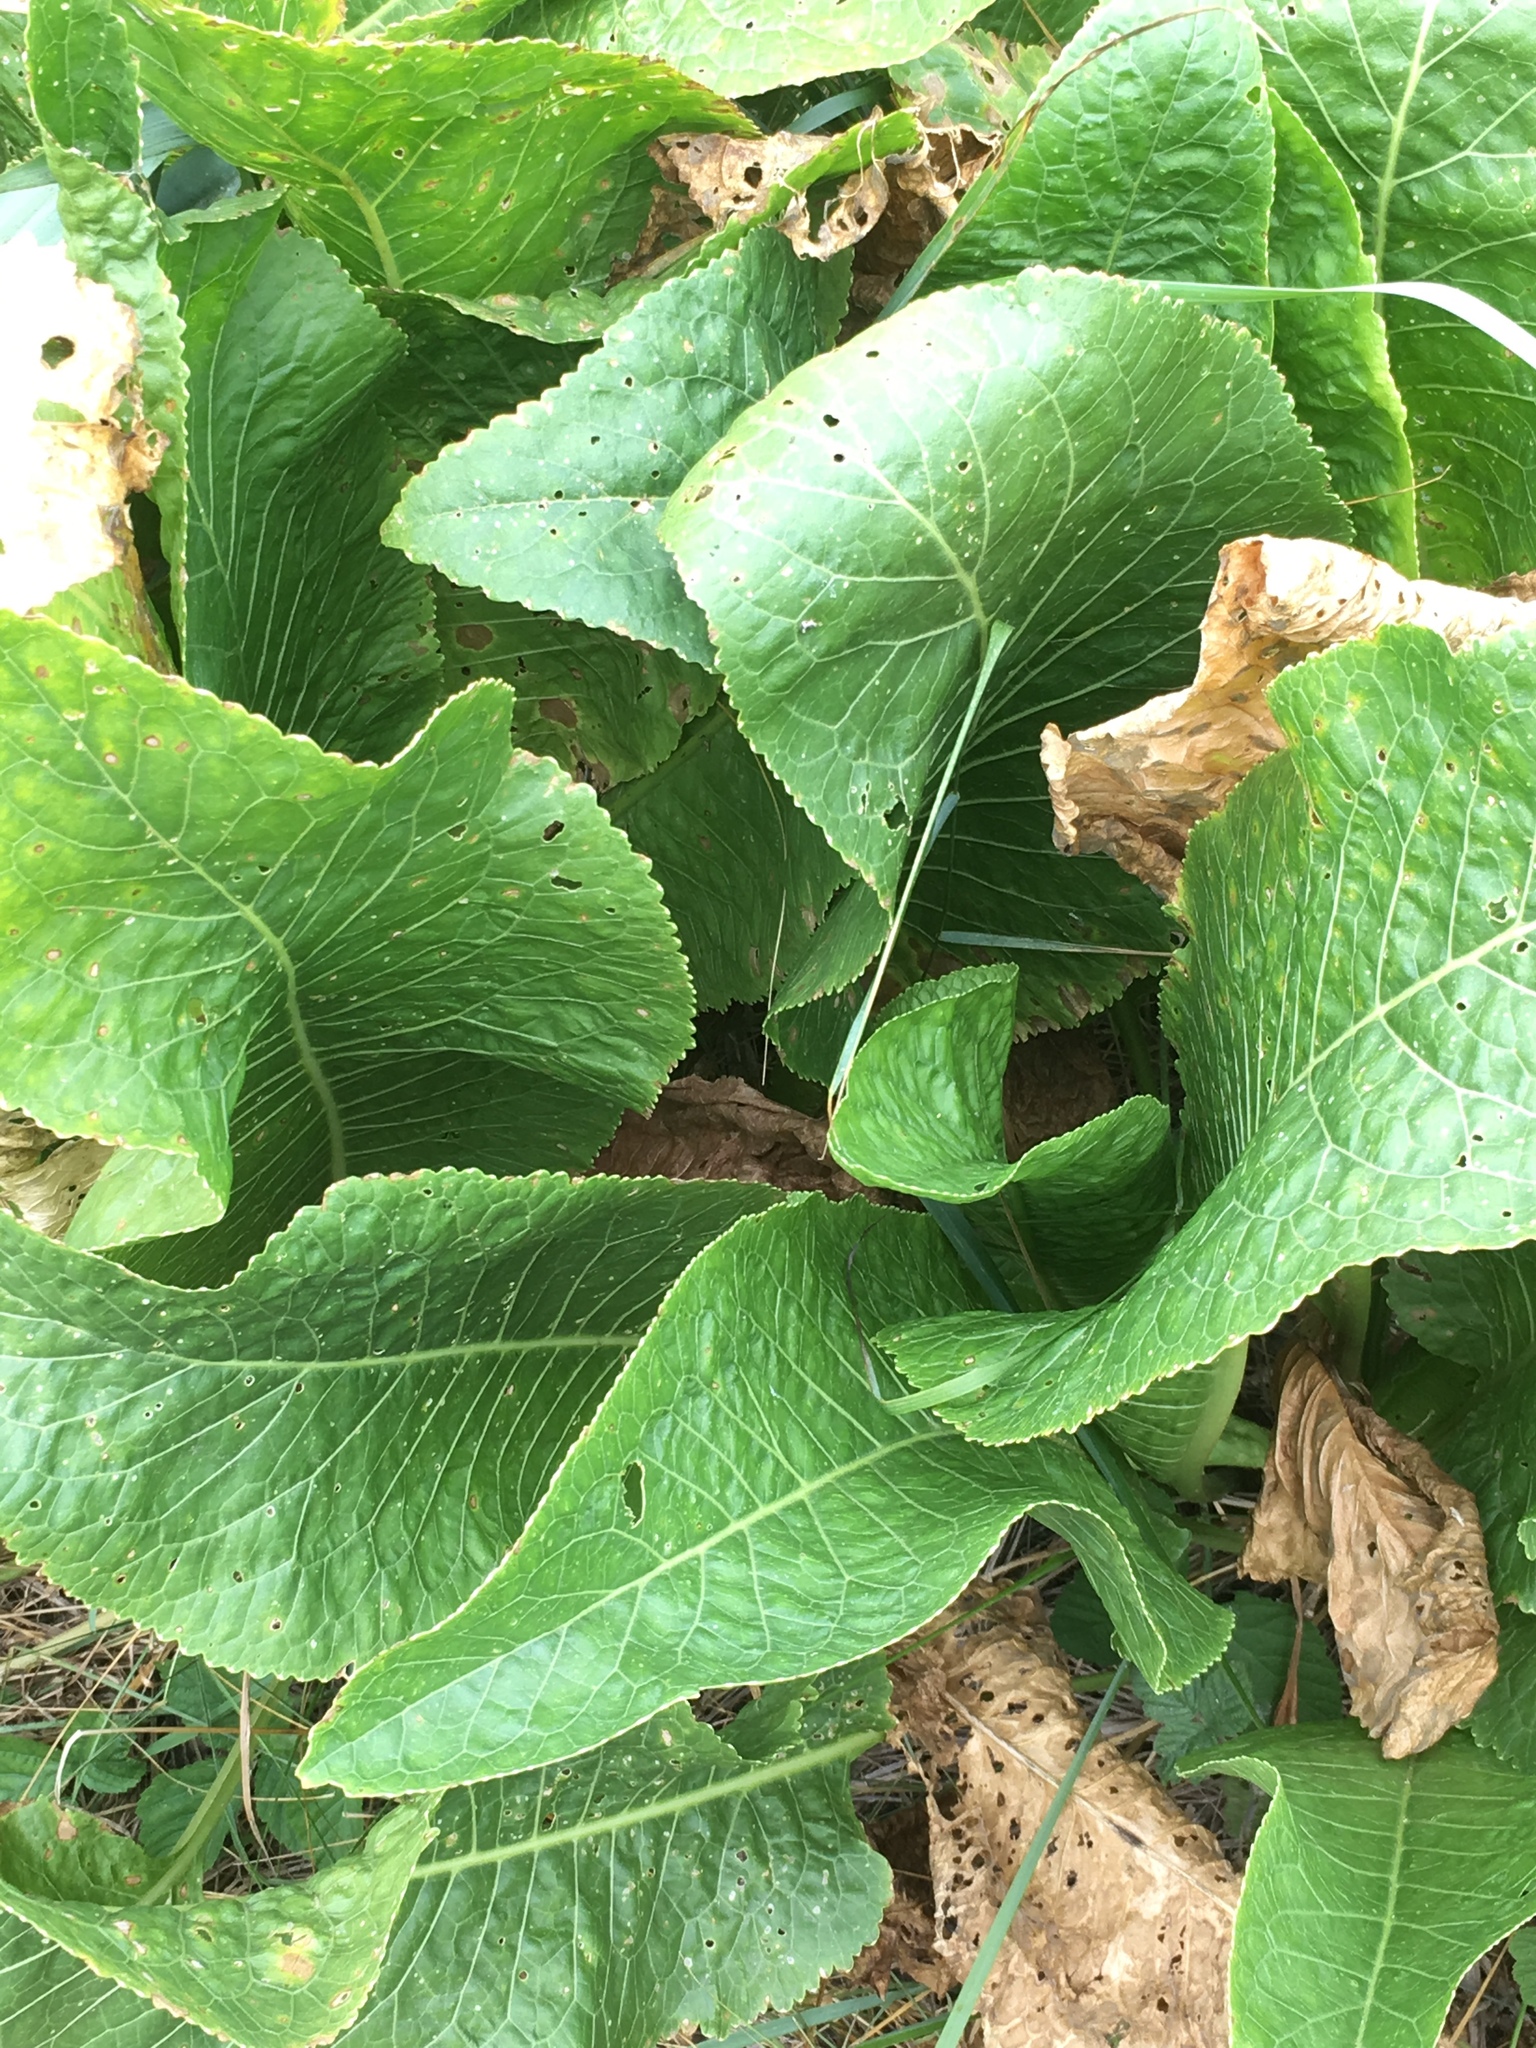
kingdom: Plantae
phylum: Tracheophyta
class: Magnoliopsida
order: Brassicales
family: Brassicaceae
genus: Armoracia
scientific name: Armoracia rusticana
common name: Horseradish
